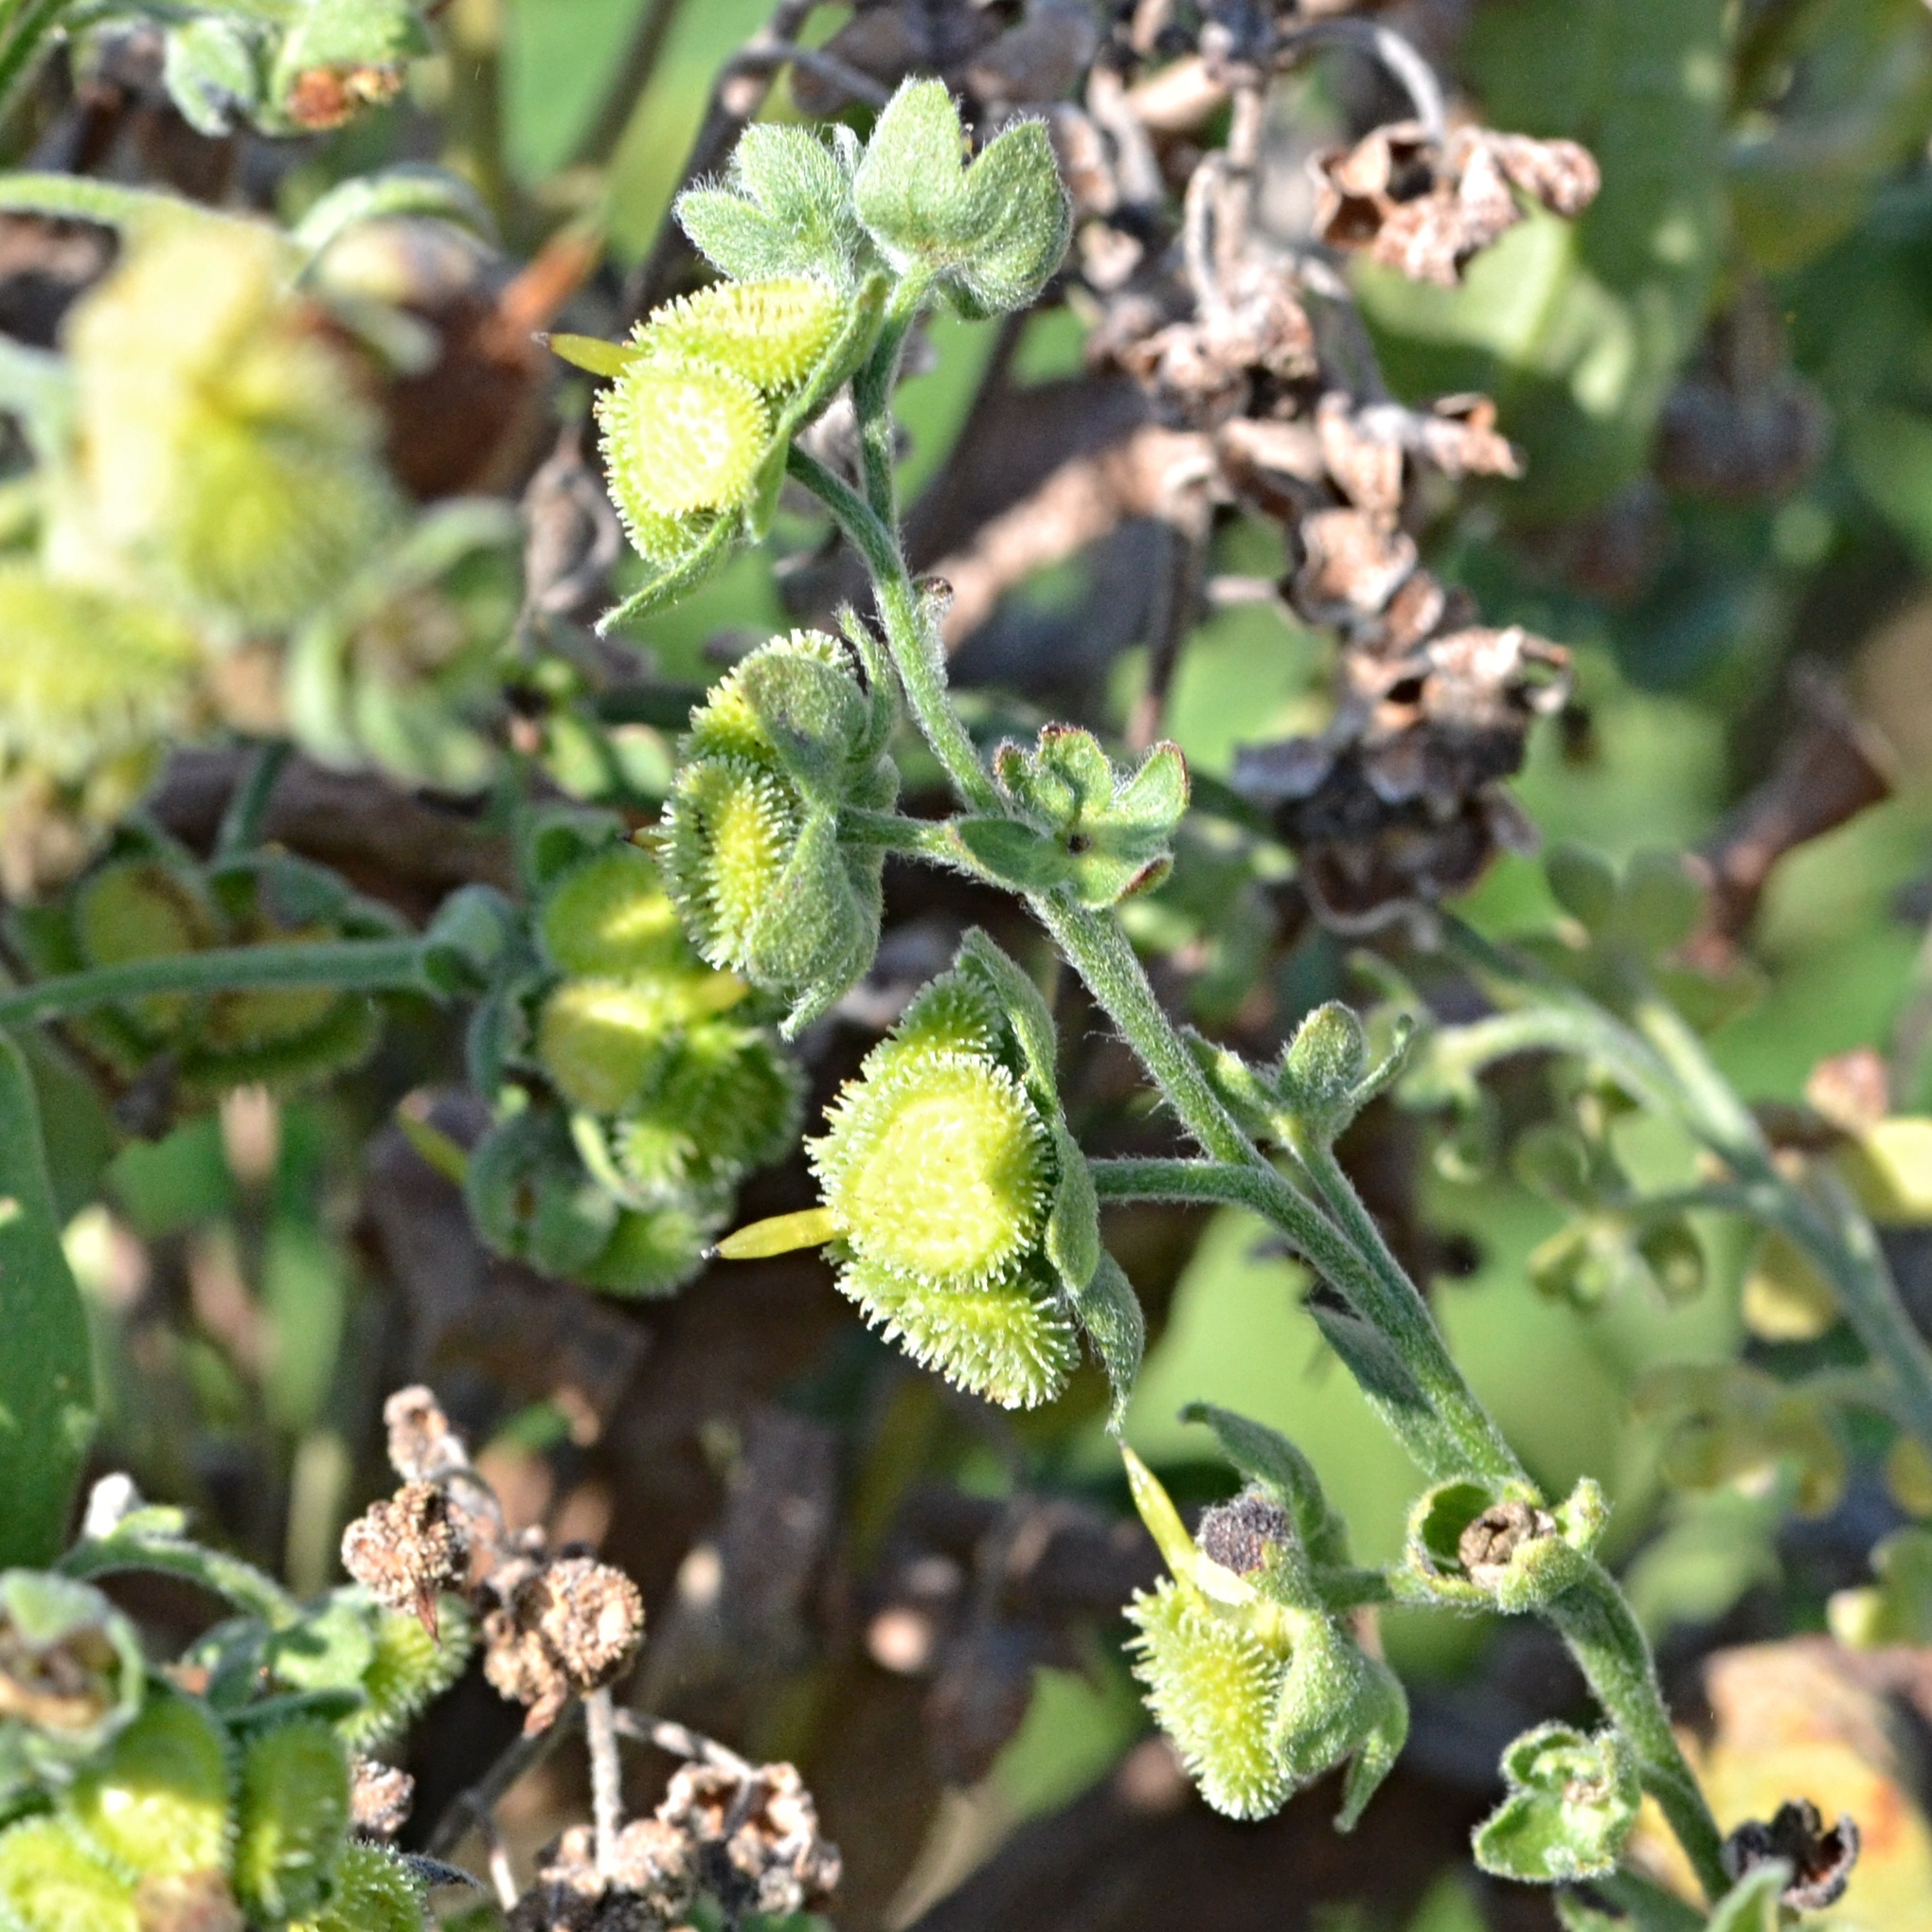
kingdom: Plantae
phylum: Tracheophyta
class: Magnoliopsida
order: Boraginales
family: Boraginaceae
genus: Cynoglossum
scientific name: Cynoglossum officinale
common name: Hound's-tongue
